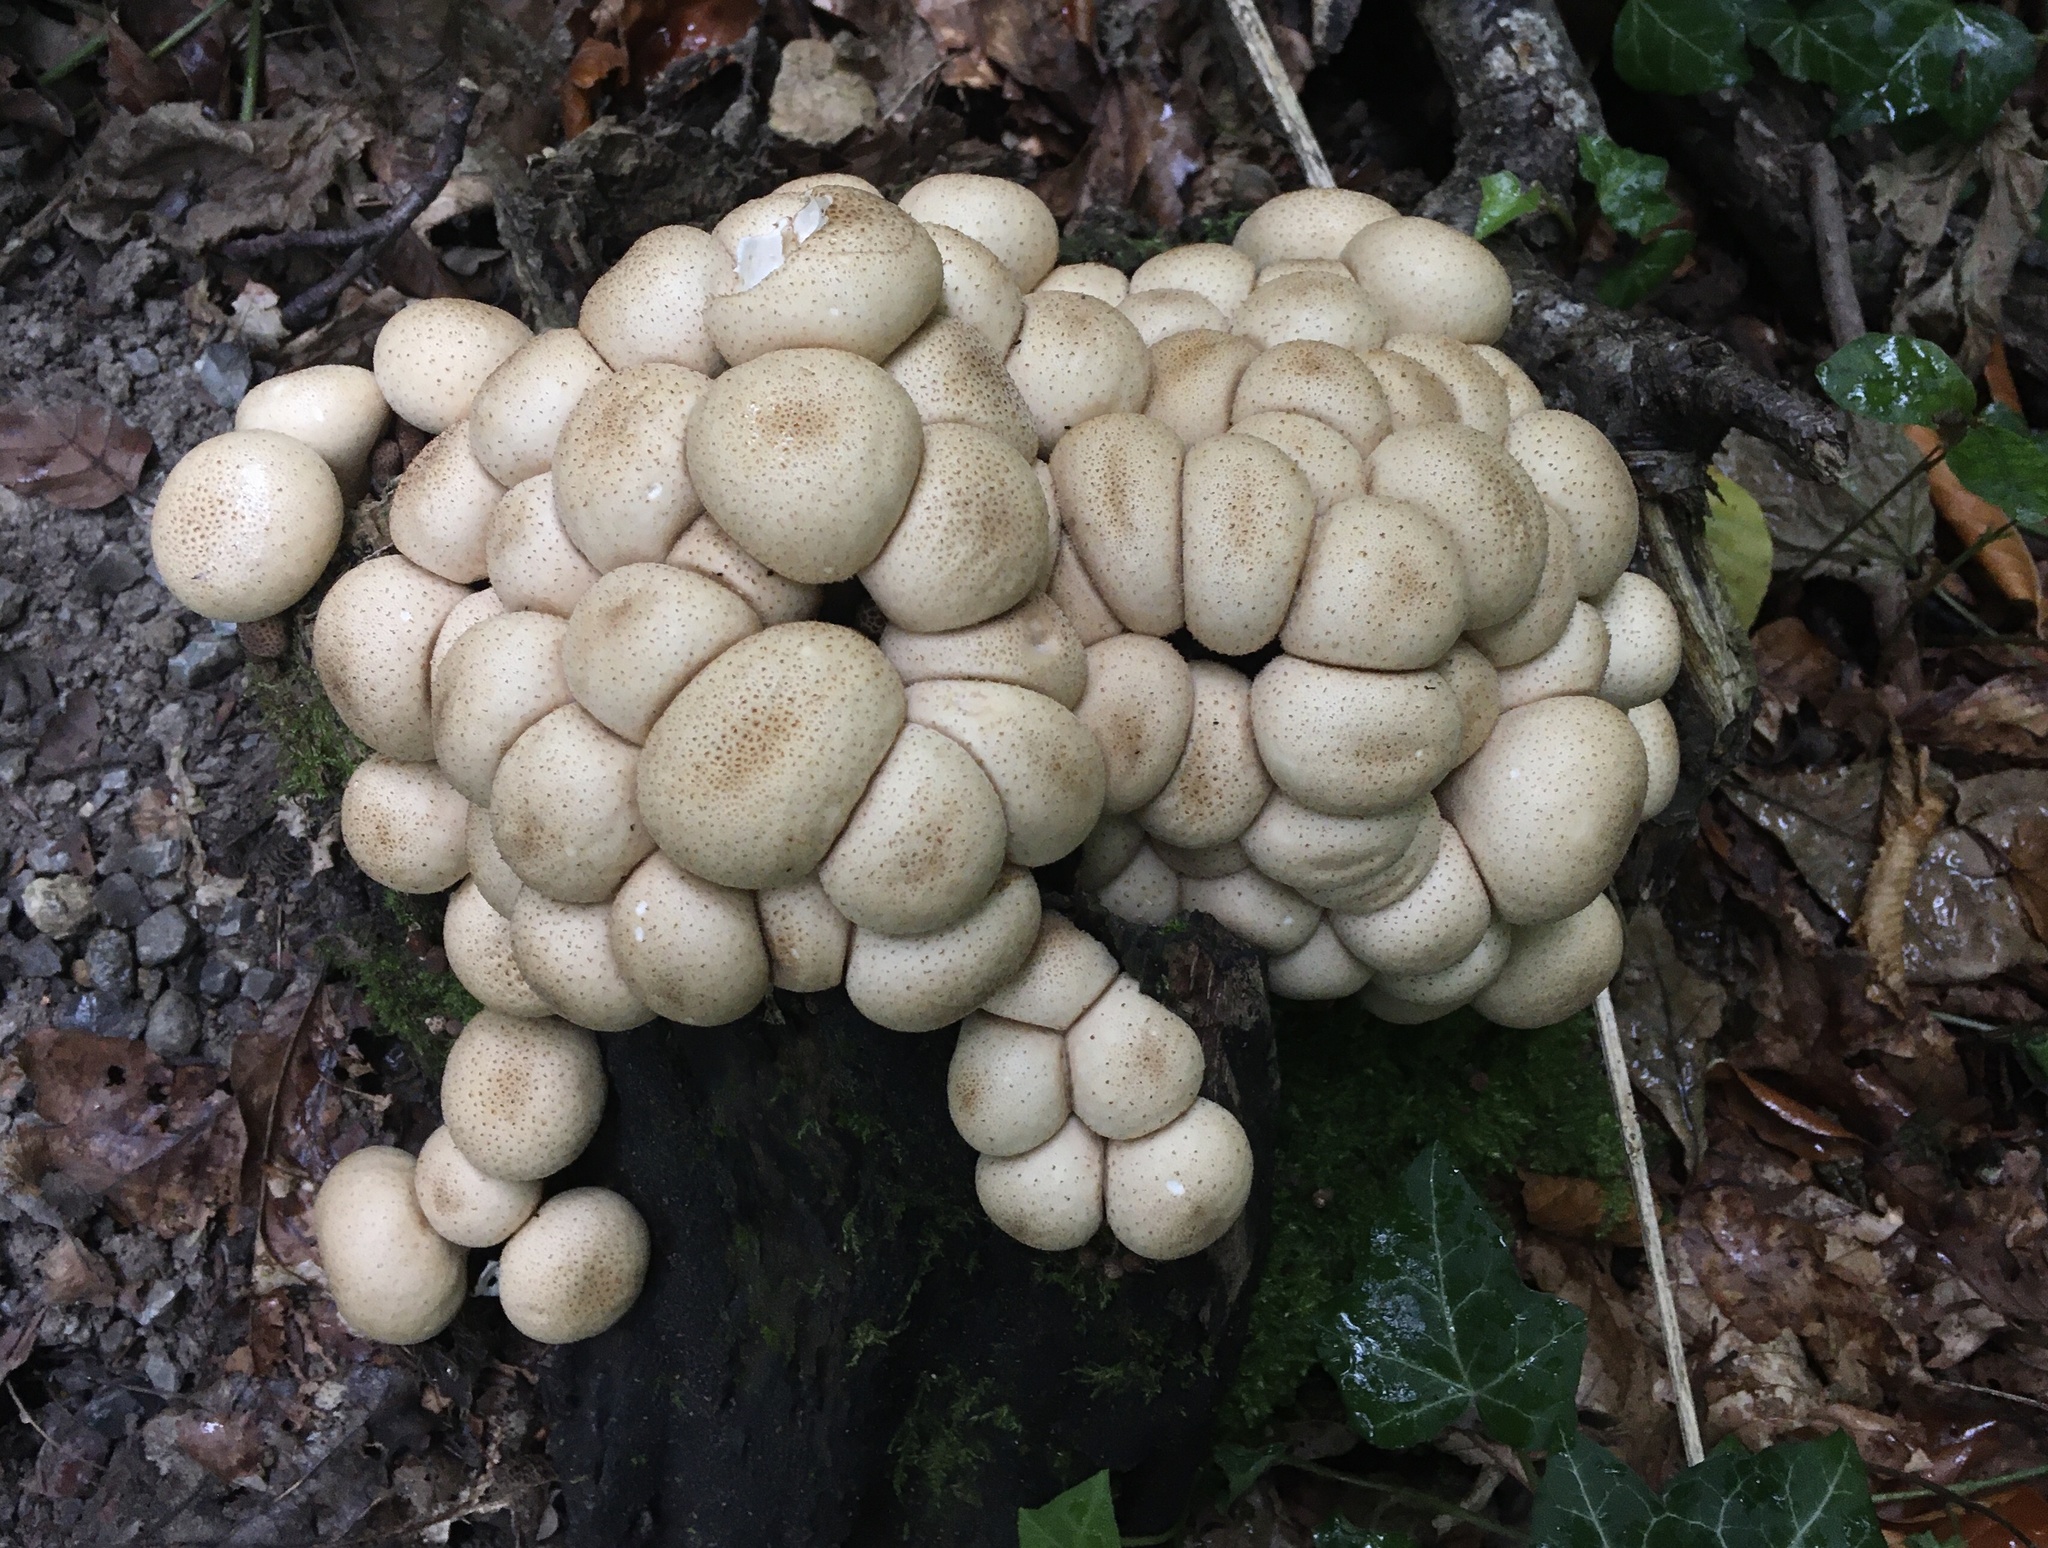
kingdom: Fungi
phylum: Basidiomycota
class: Agaricomycetes
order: Agaricales
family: Lycoperdaceae
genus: Apioperdon
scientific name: Apioperdon pyriforme
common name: Pear-shaped puffball
